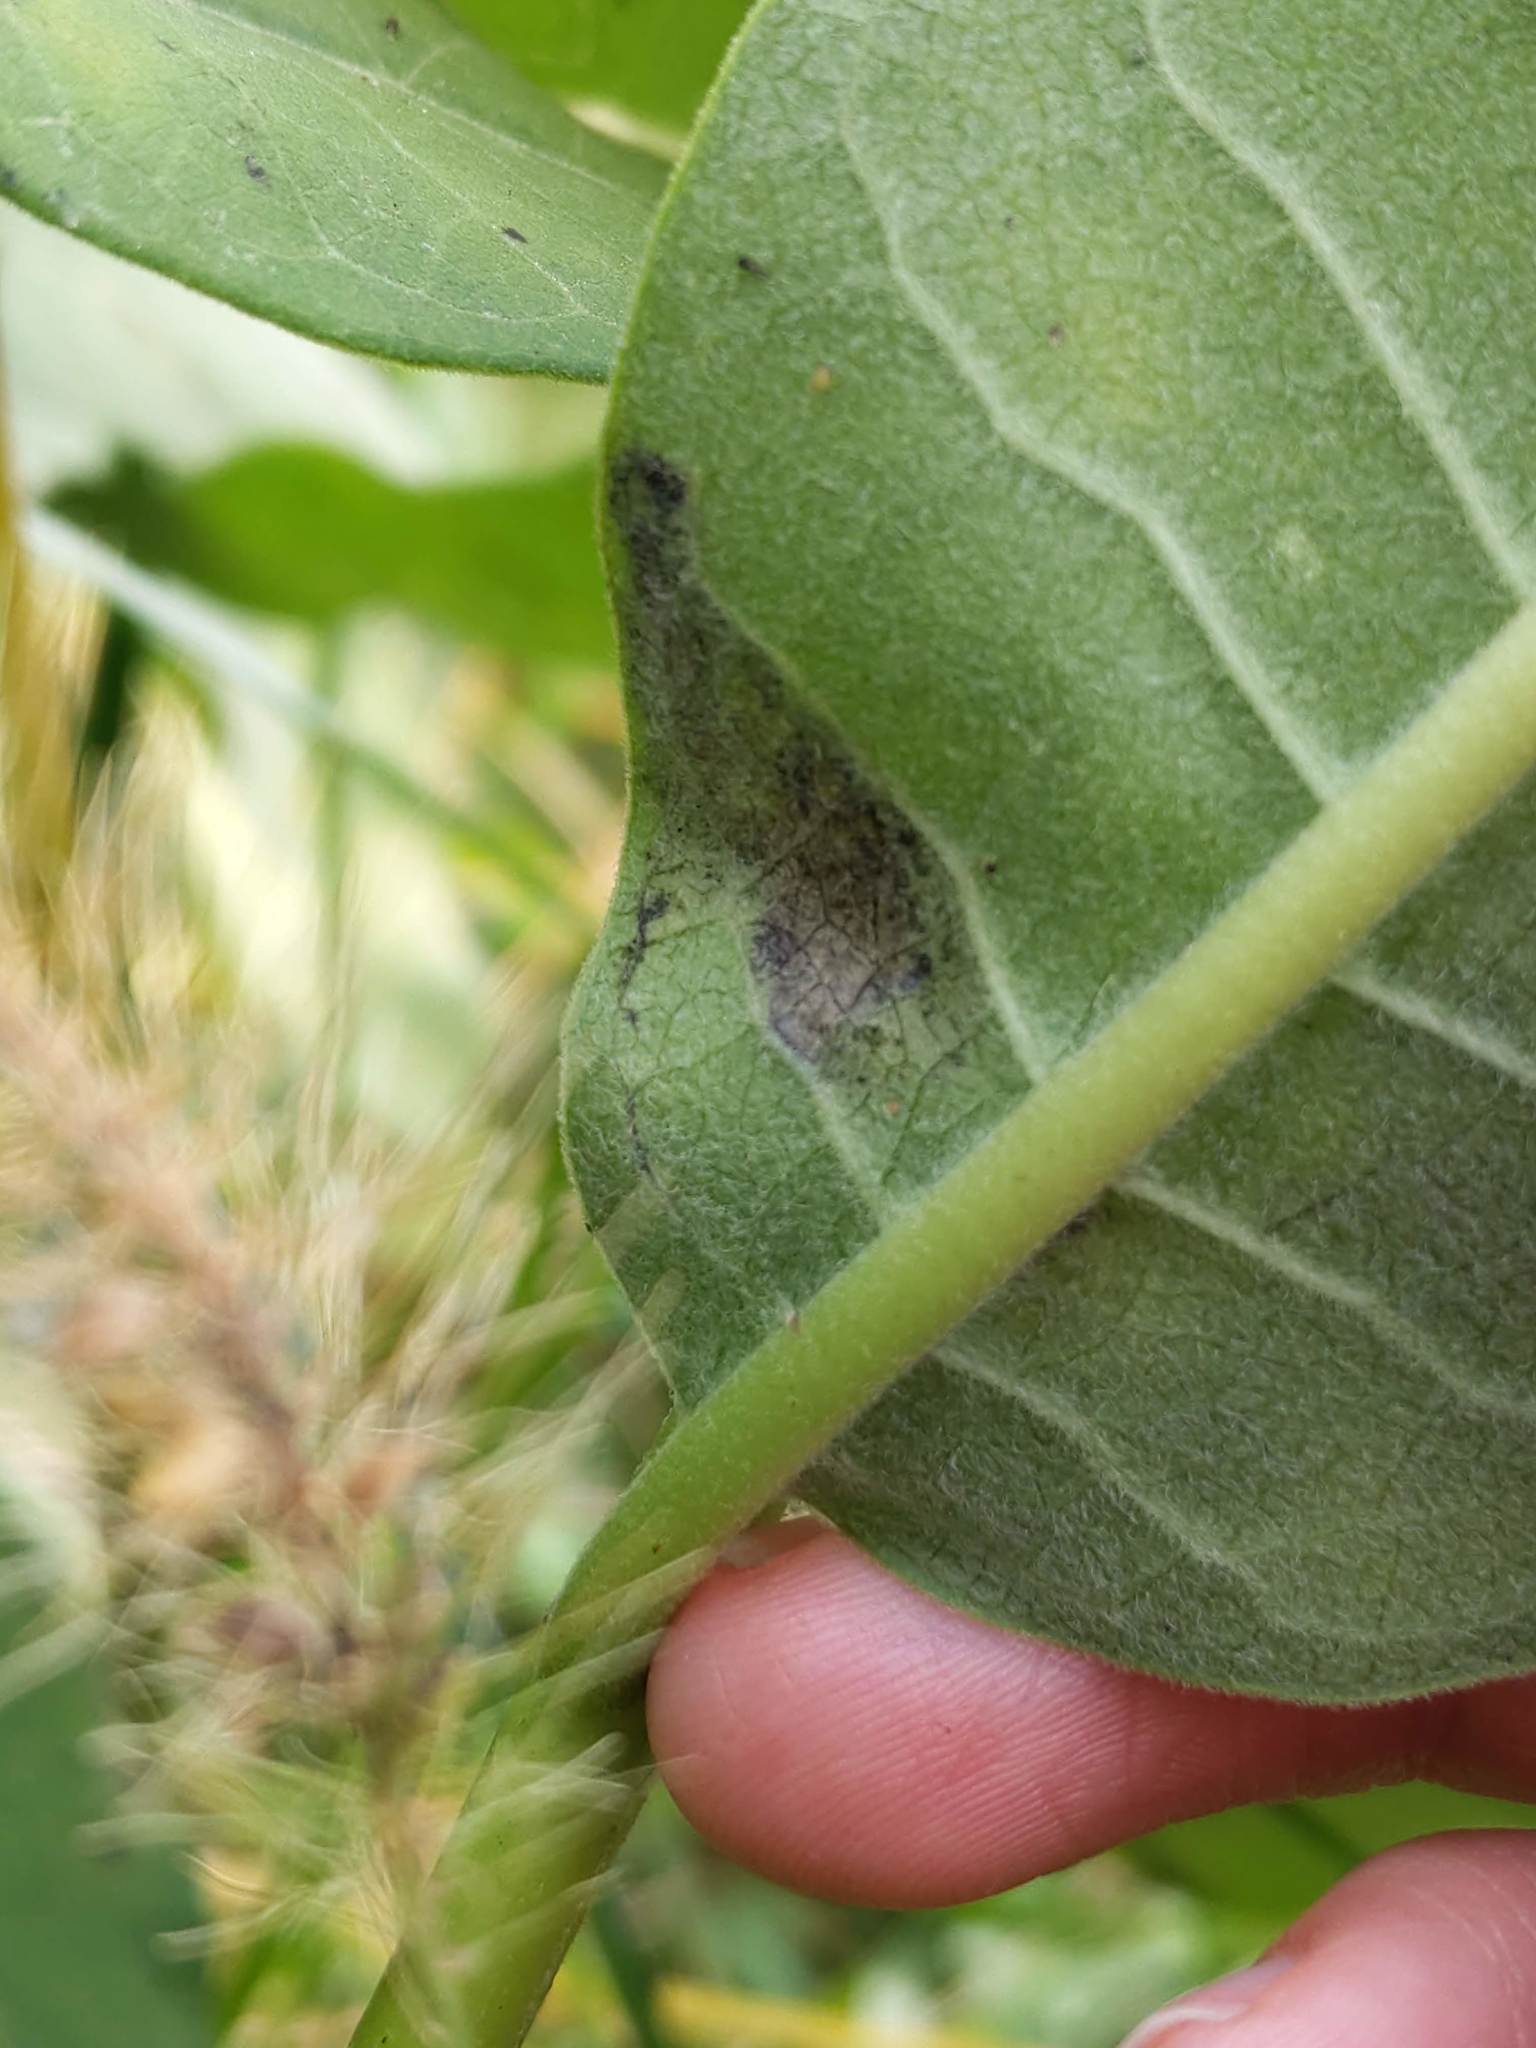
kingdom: Animalia
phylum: Arthropoda
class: Insecta
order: Diptera
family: Agromyzidae
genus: Liriomyza
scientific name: Liriomyza asclepiadis
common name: Milkweed leaf-miner fly
